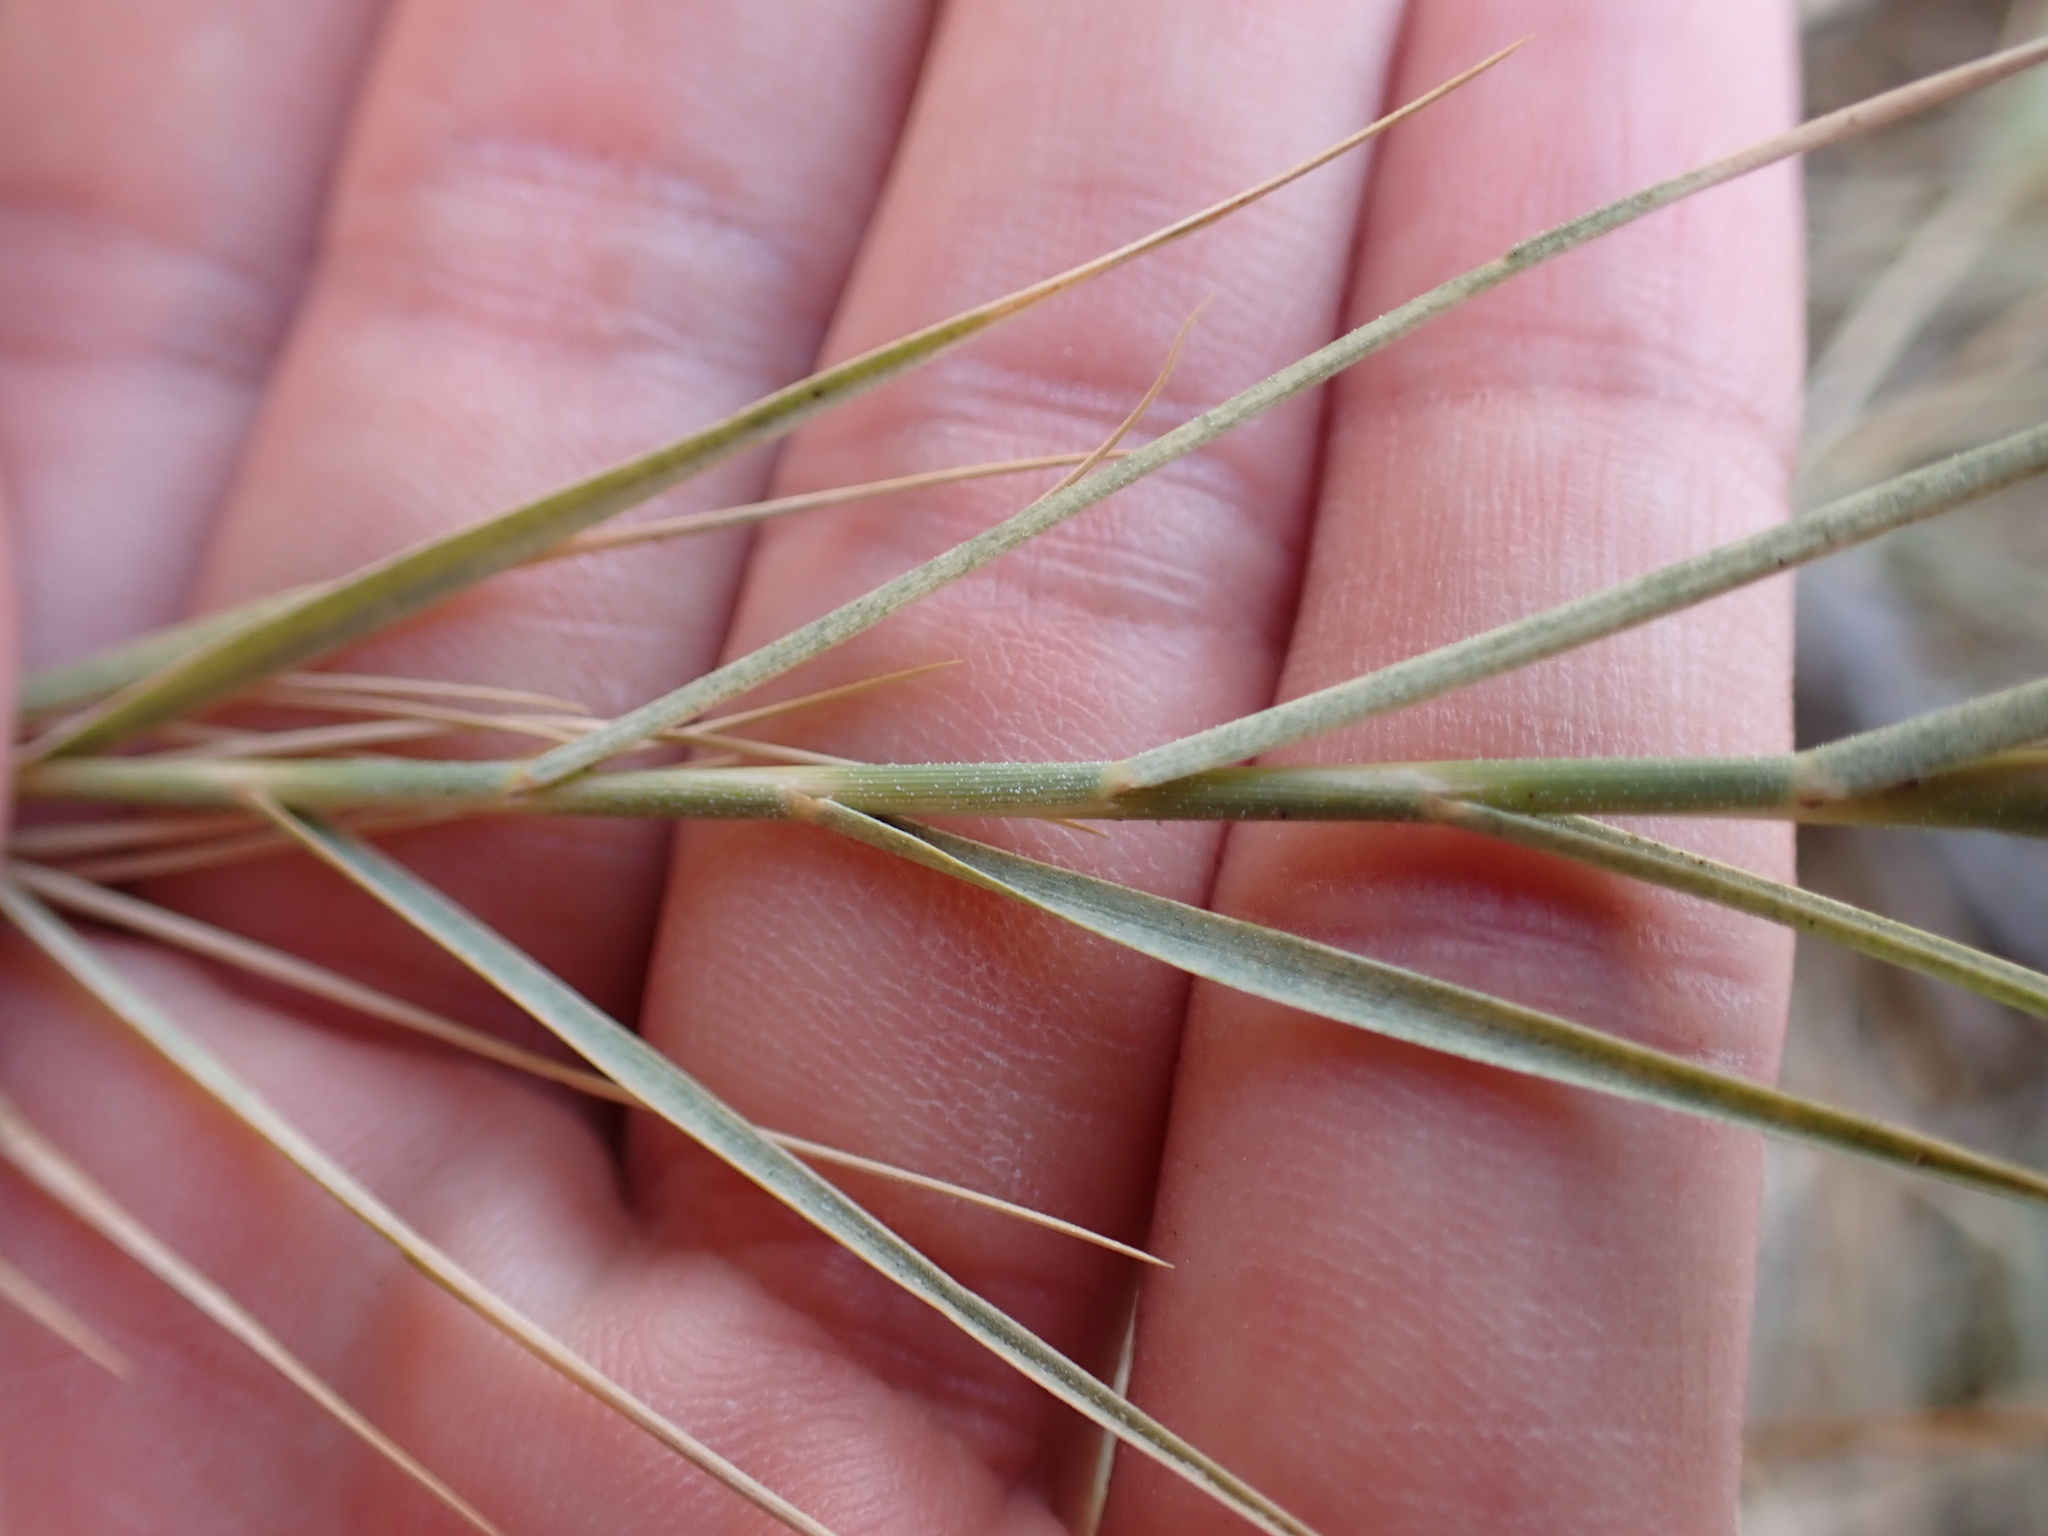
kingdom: Plantae
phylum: Tracheophyta
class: Liliopsida
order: Poales
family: Poaceae
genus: Distichlis
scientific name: Distichlis spicata
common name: Saltgrass
